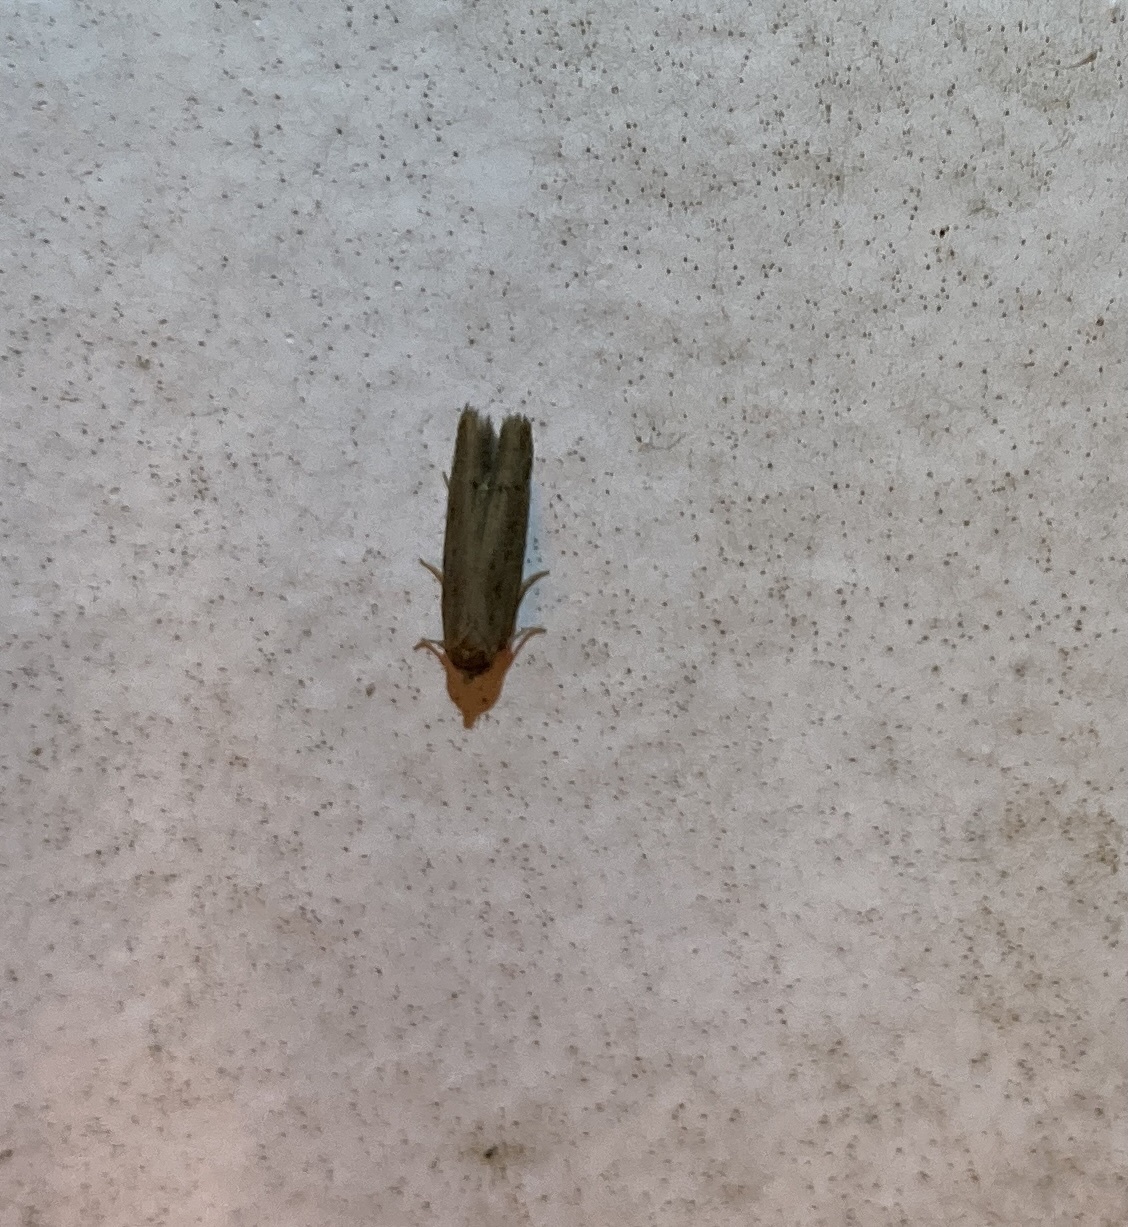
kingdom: Animalia
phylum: Arthropoda
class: Insecta
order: Lepidoptera
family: Blastobasidae
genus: Blastobasis
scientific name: Blastobasis tarda
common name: Blastobasid moth
